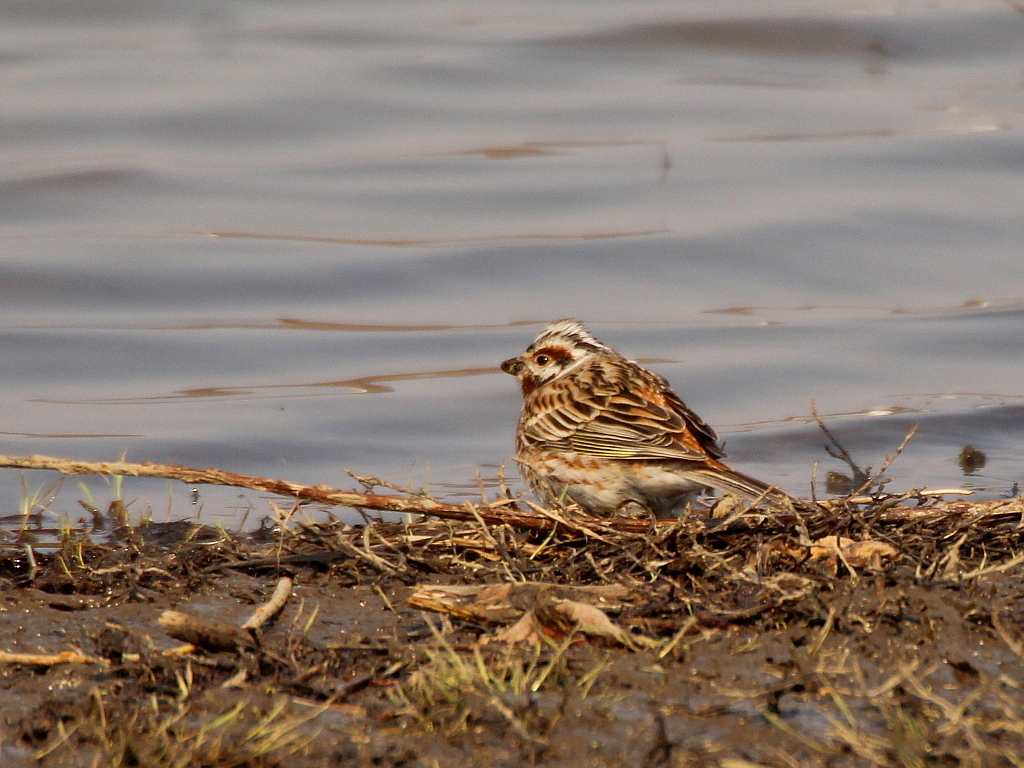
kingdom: Animalia
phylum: Chordata
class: Aves
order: Passeriformes
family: Emberizidae
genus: Emberiza
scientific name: Emberiza
